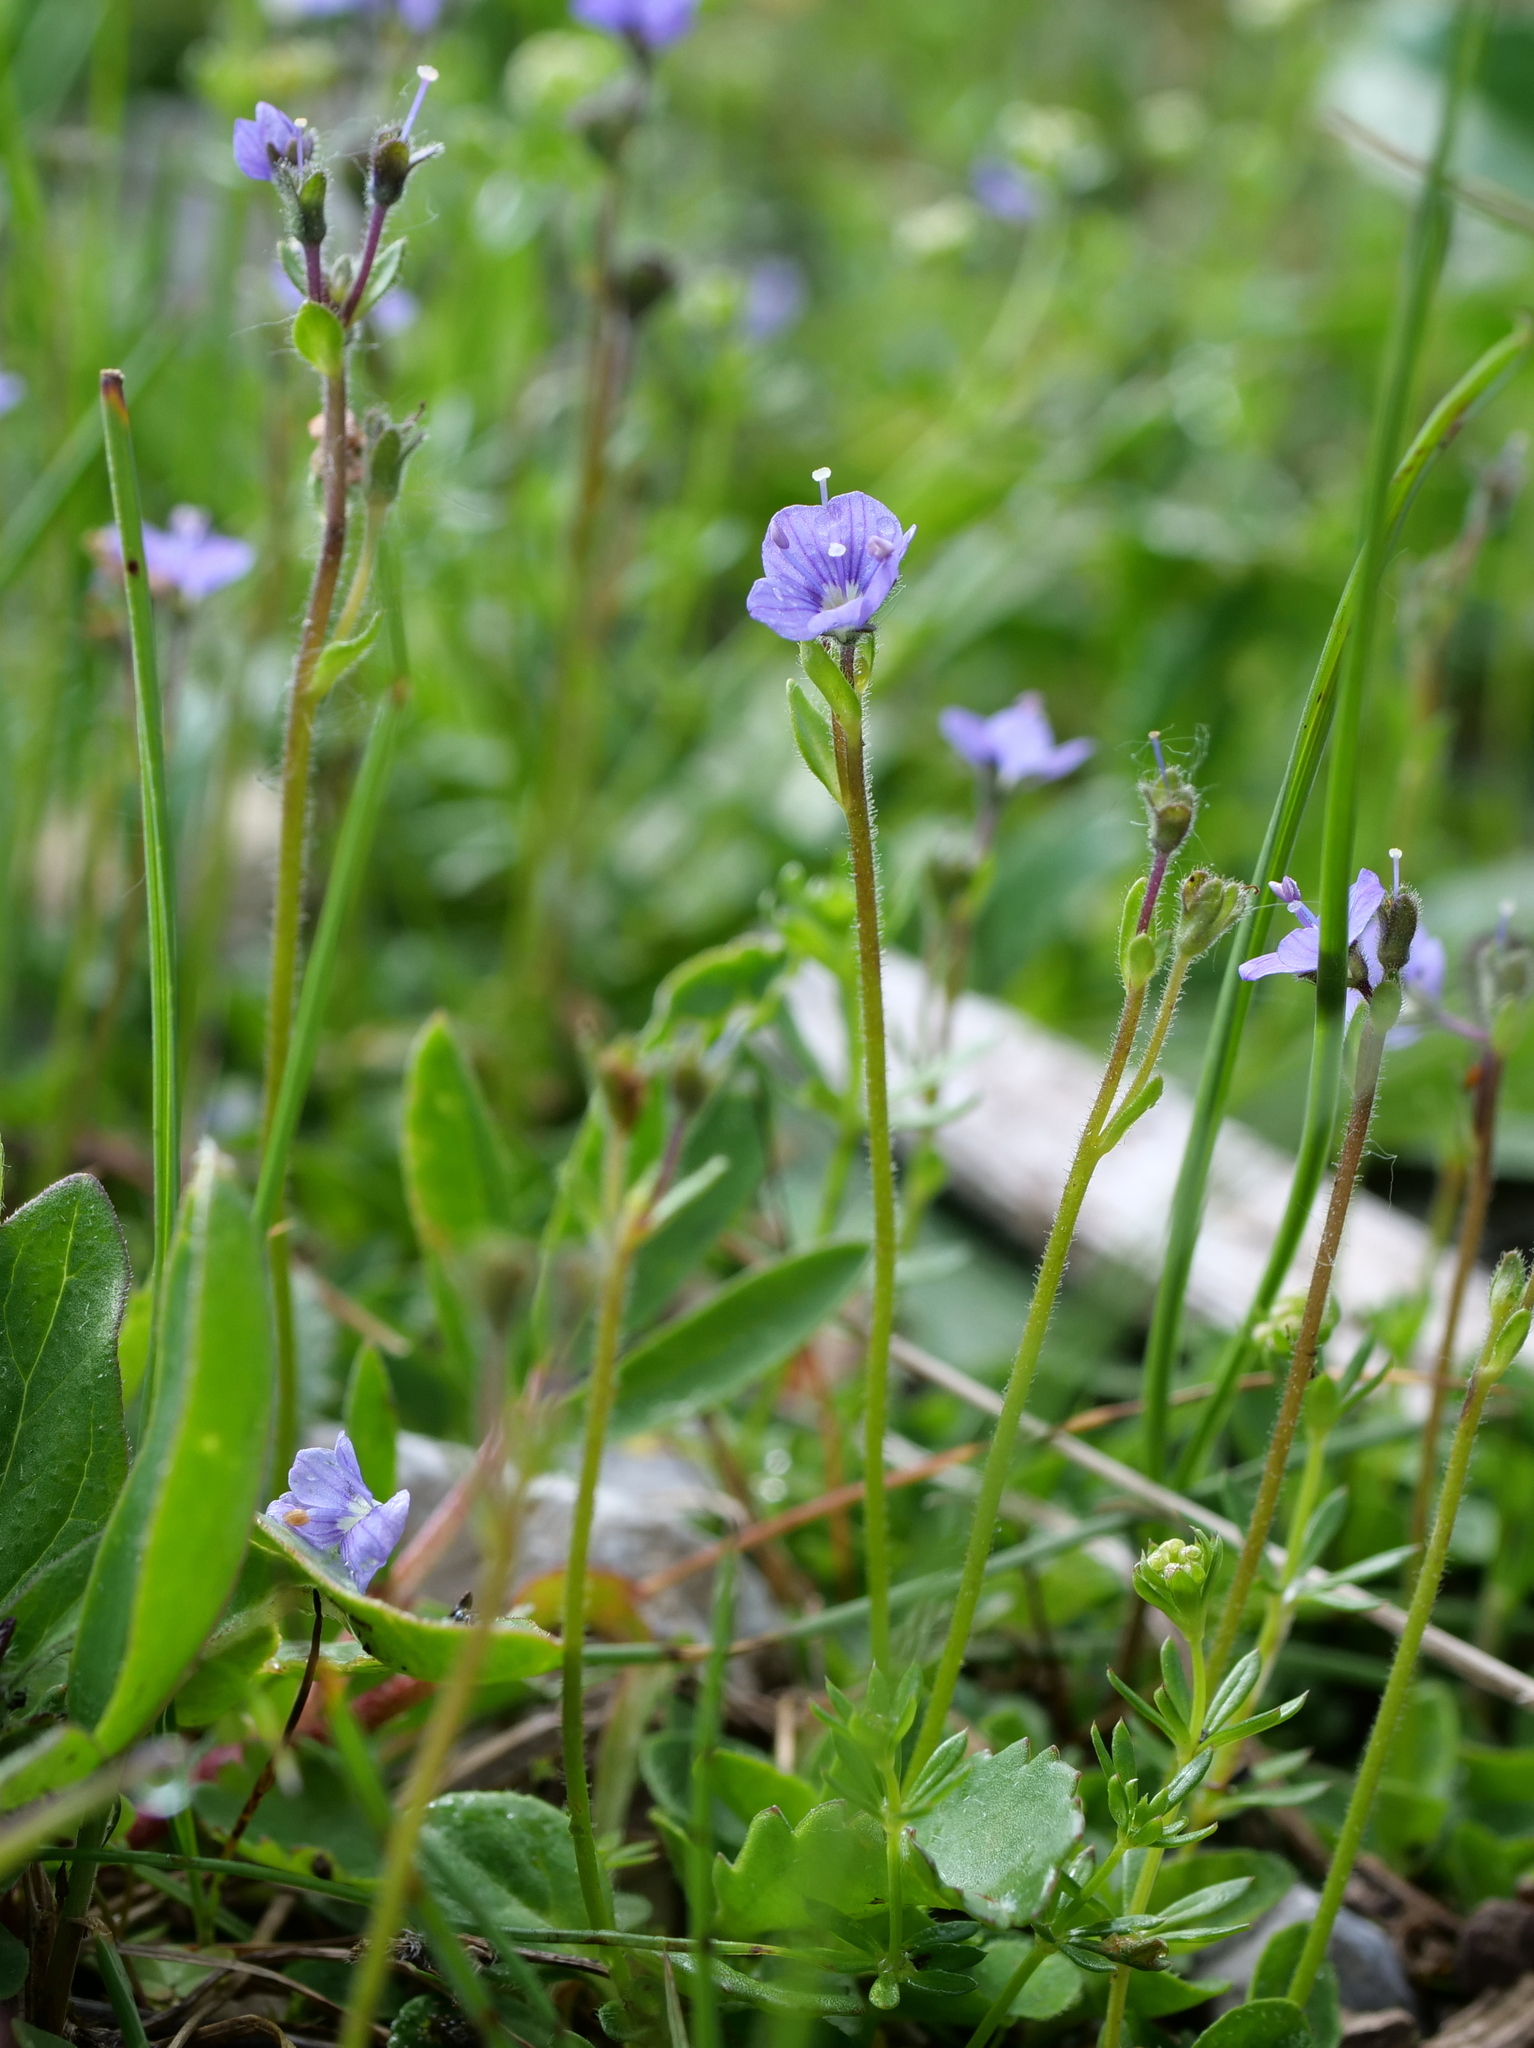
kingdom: Plantae
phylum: Tracheophyta
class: Magnoliopsida
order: Lamiales
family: Plantaginaceae
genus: Veronica
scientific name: Veronica aphylla
